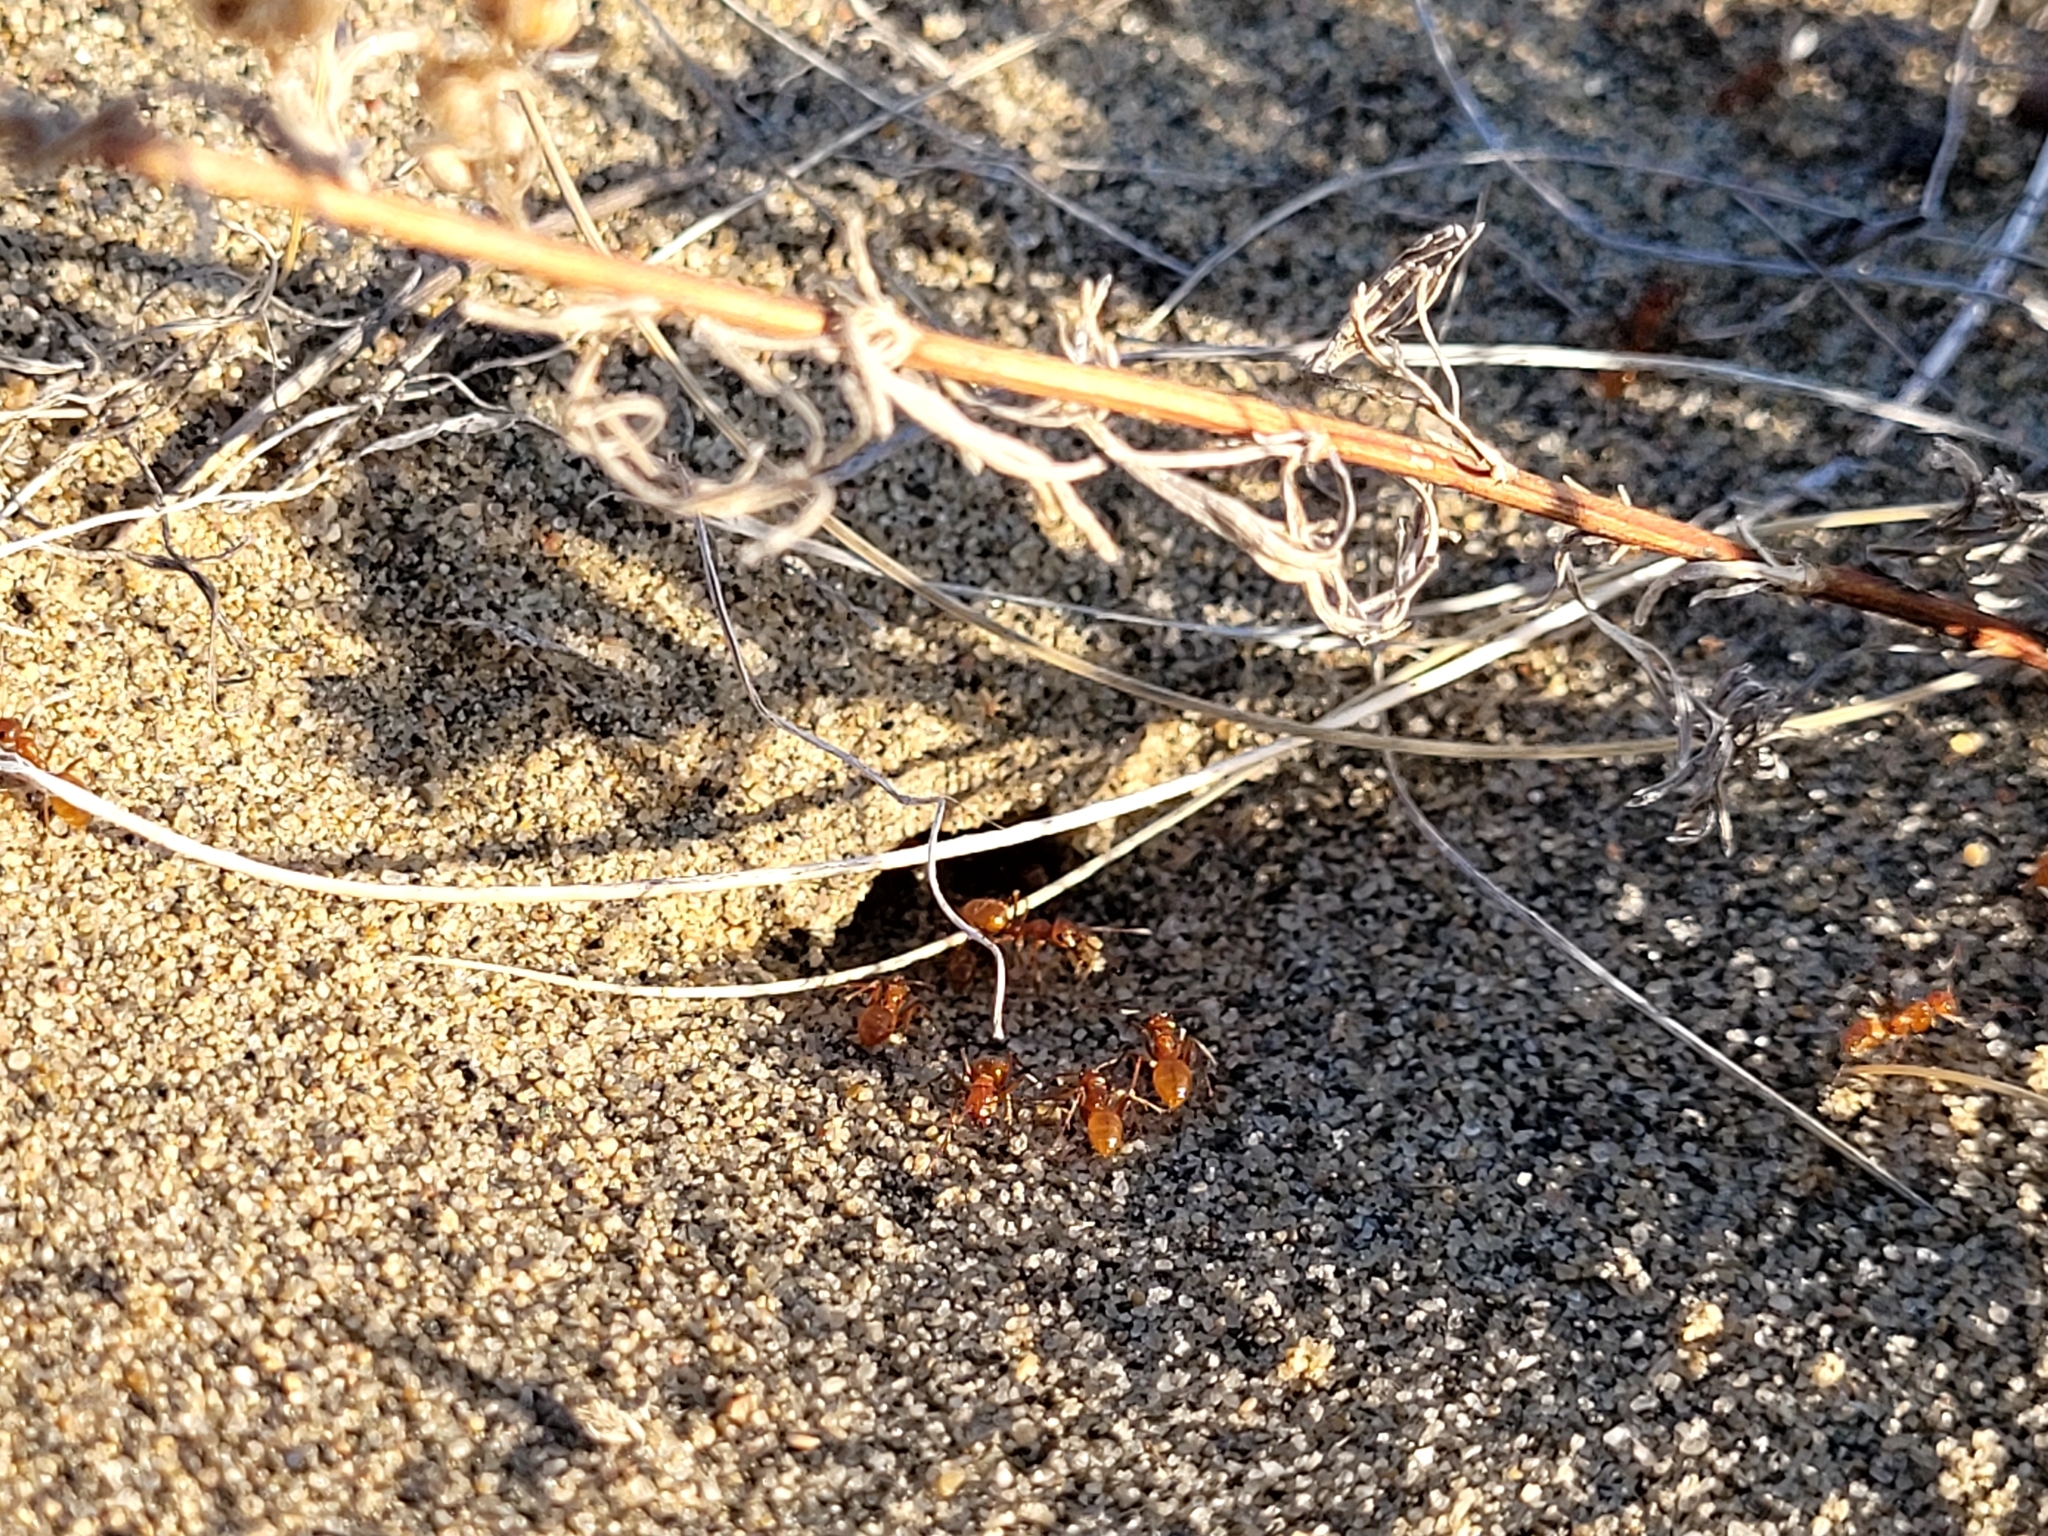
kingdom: Animalia
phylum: Arthropoda
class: Insecta
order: Hymenoptera
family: Formicidae
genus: Formica
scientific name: Formica bradleyi
